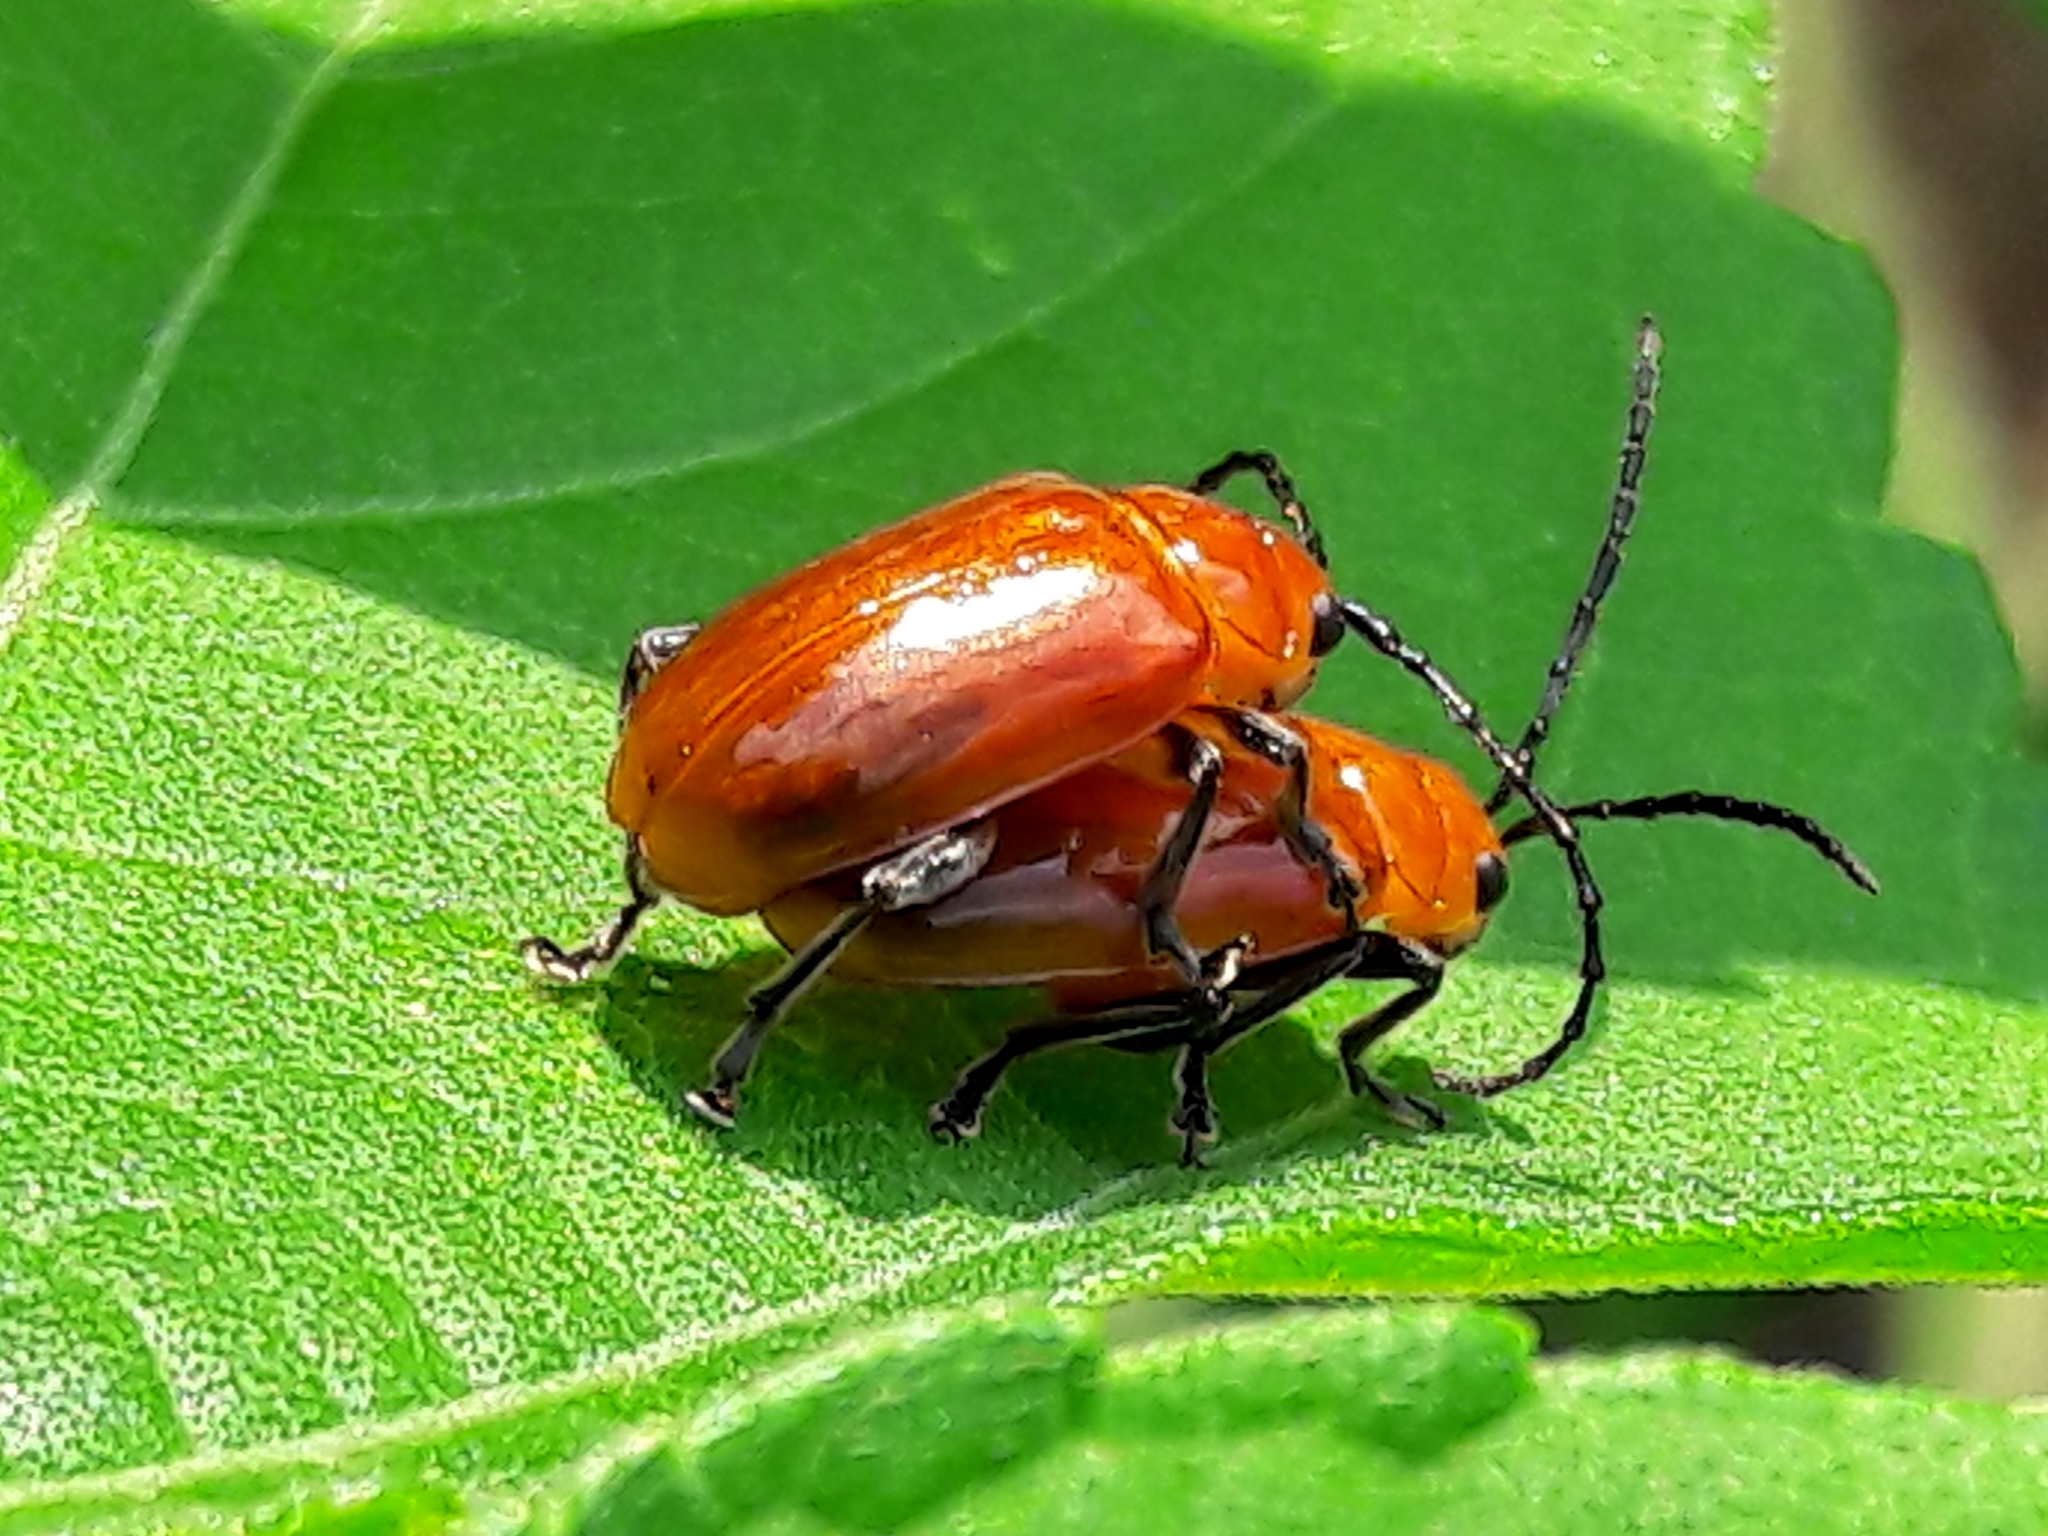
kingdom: Animalia
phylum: Arthropoda
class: Insecta
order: Coleoptera
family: Chrysomelidae
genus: Platiprosopus
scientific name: Platiprosopus
